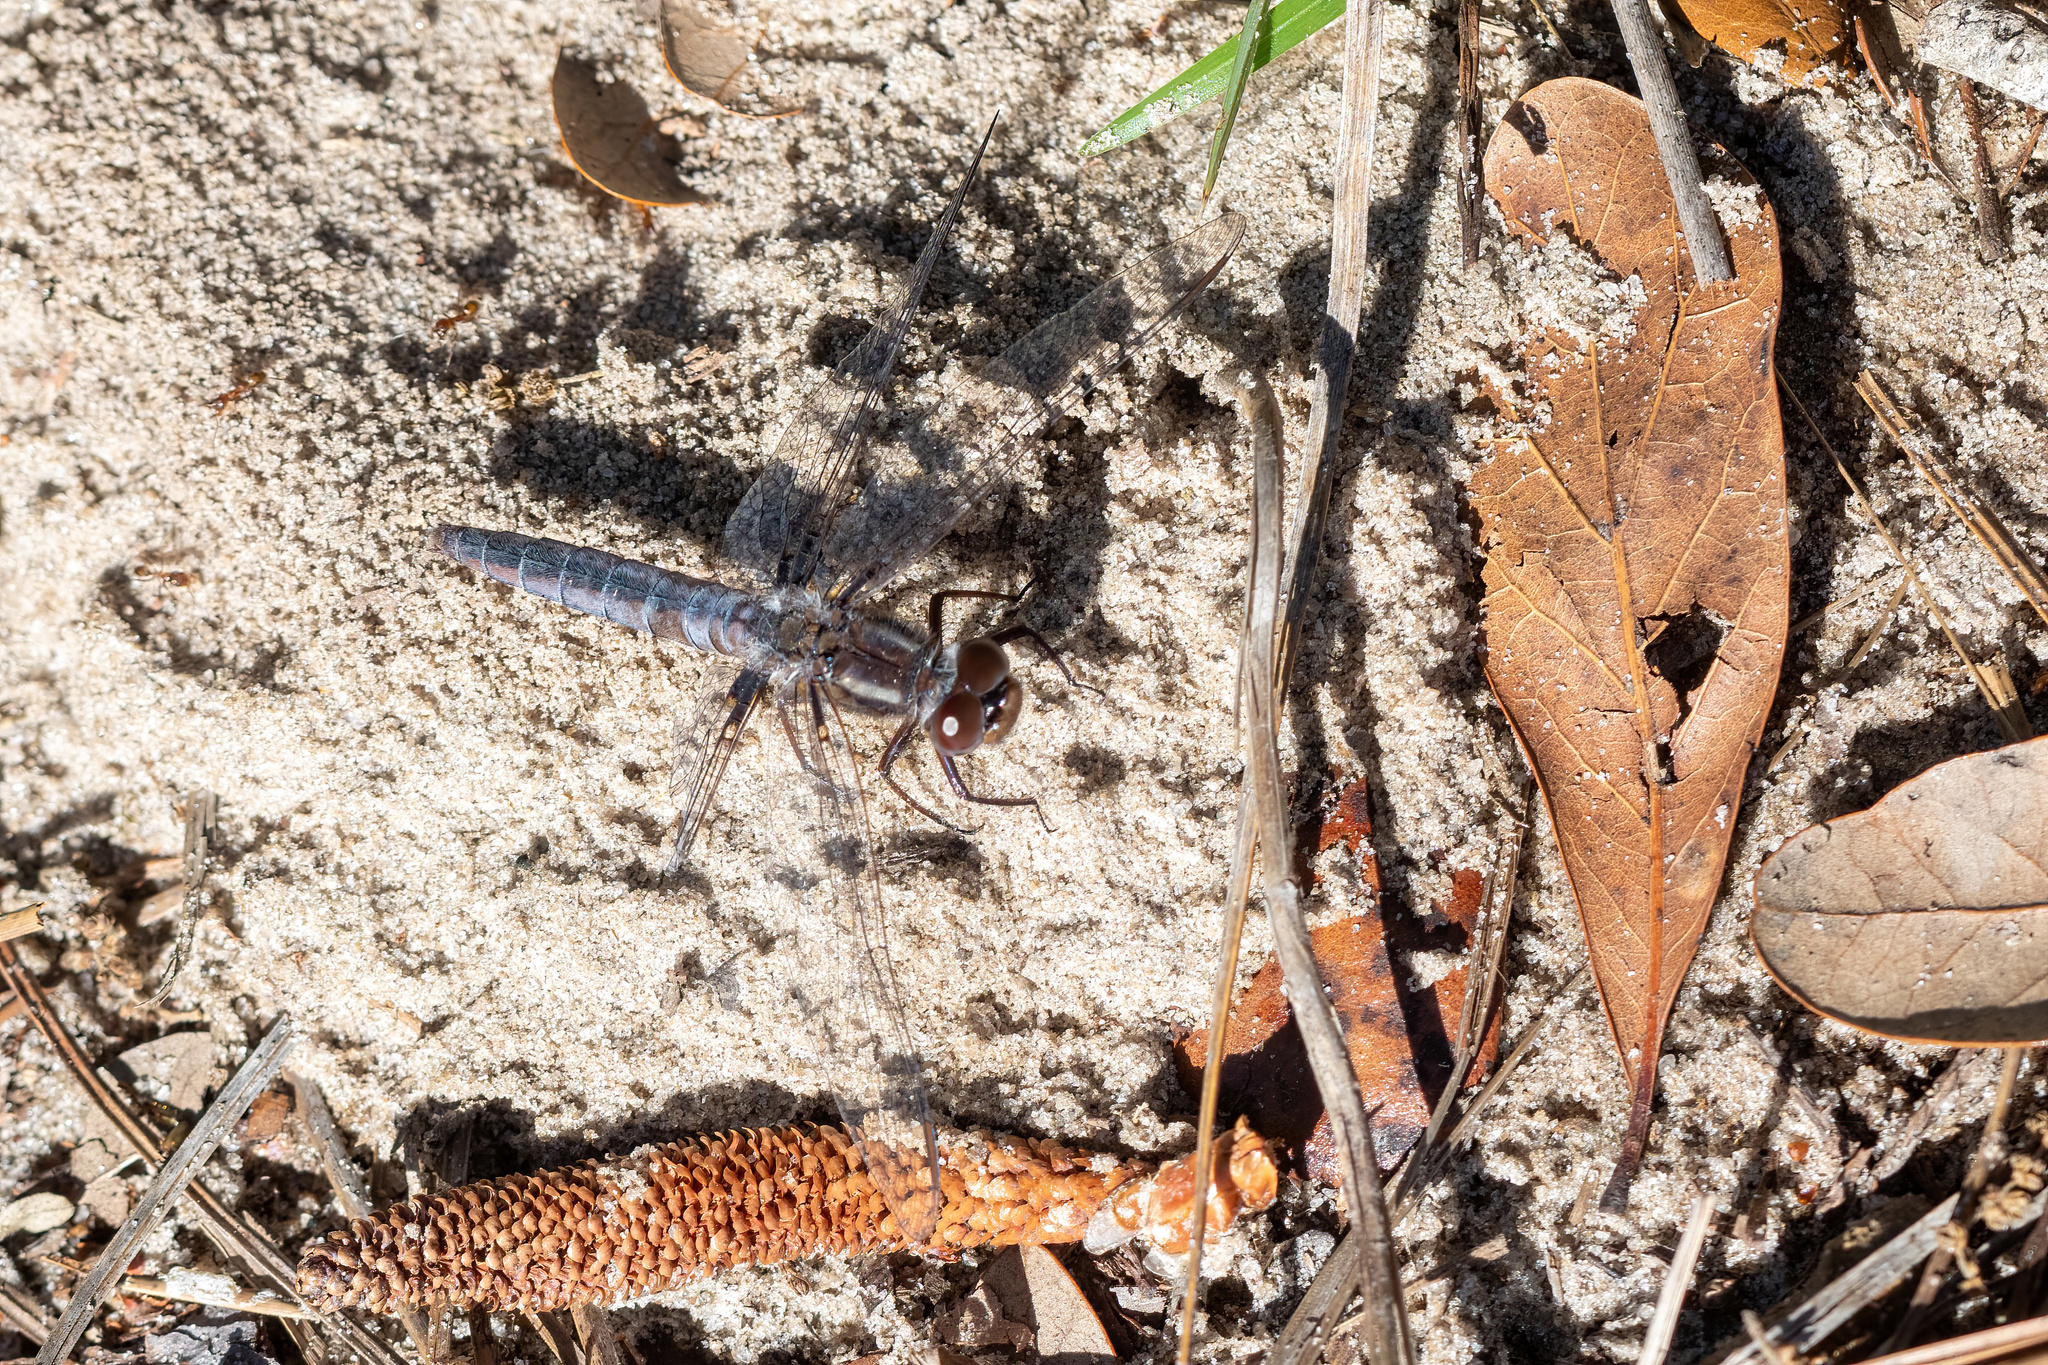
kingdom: Animalia
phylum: Arthropoda
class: Insecta
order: Odonata
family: Libellulidae
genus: Ladona
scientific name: Ladona deplanata
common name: Blue corporal
